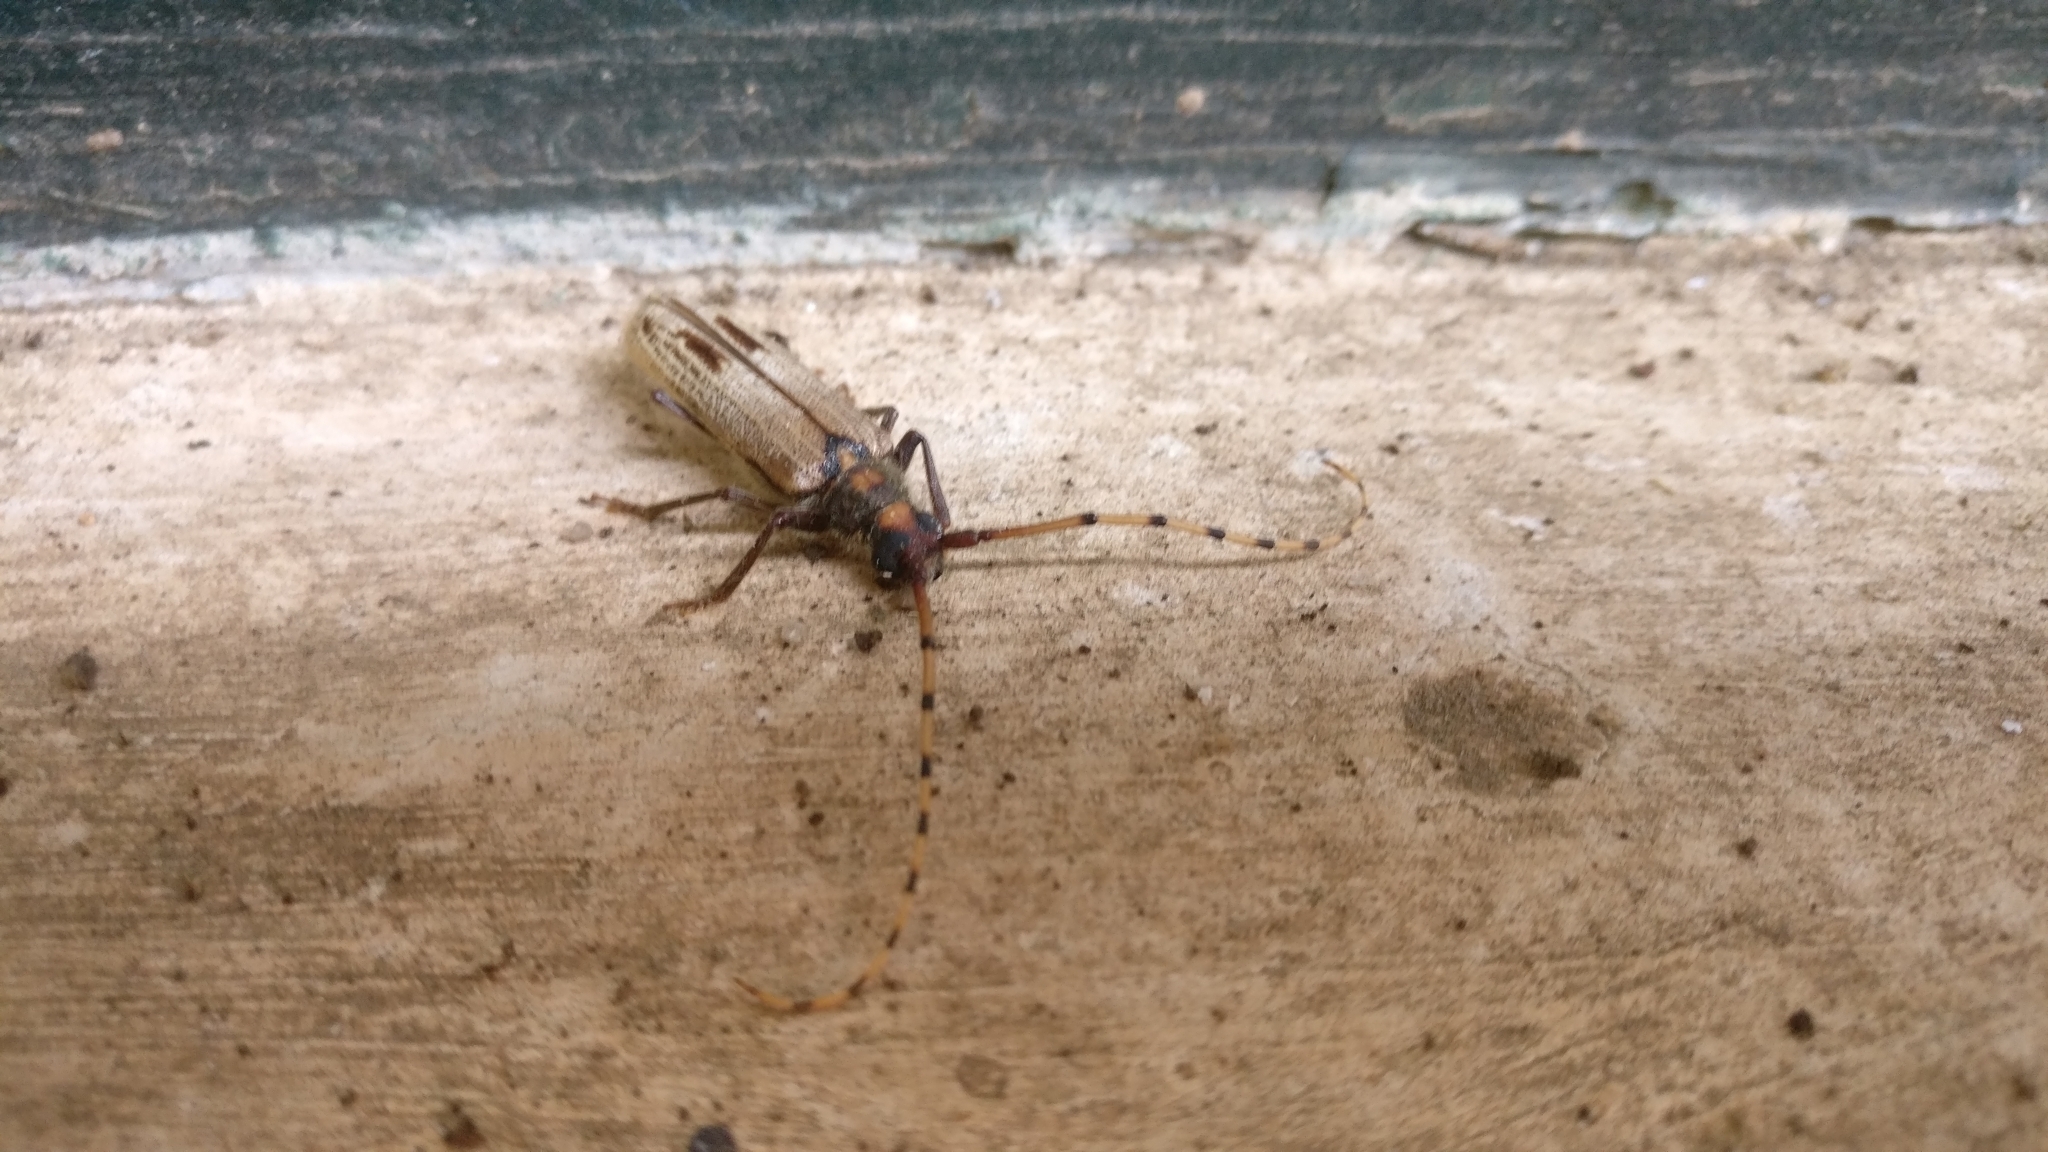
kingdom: Animalia
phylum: Arthropoda
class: Insecta
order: Coleoptera
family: Cerambycidae
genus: Dandamis
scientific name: Dandamis tricostatus
